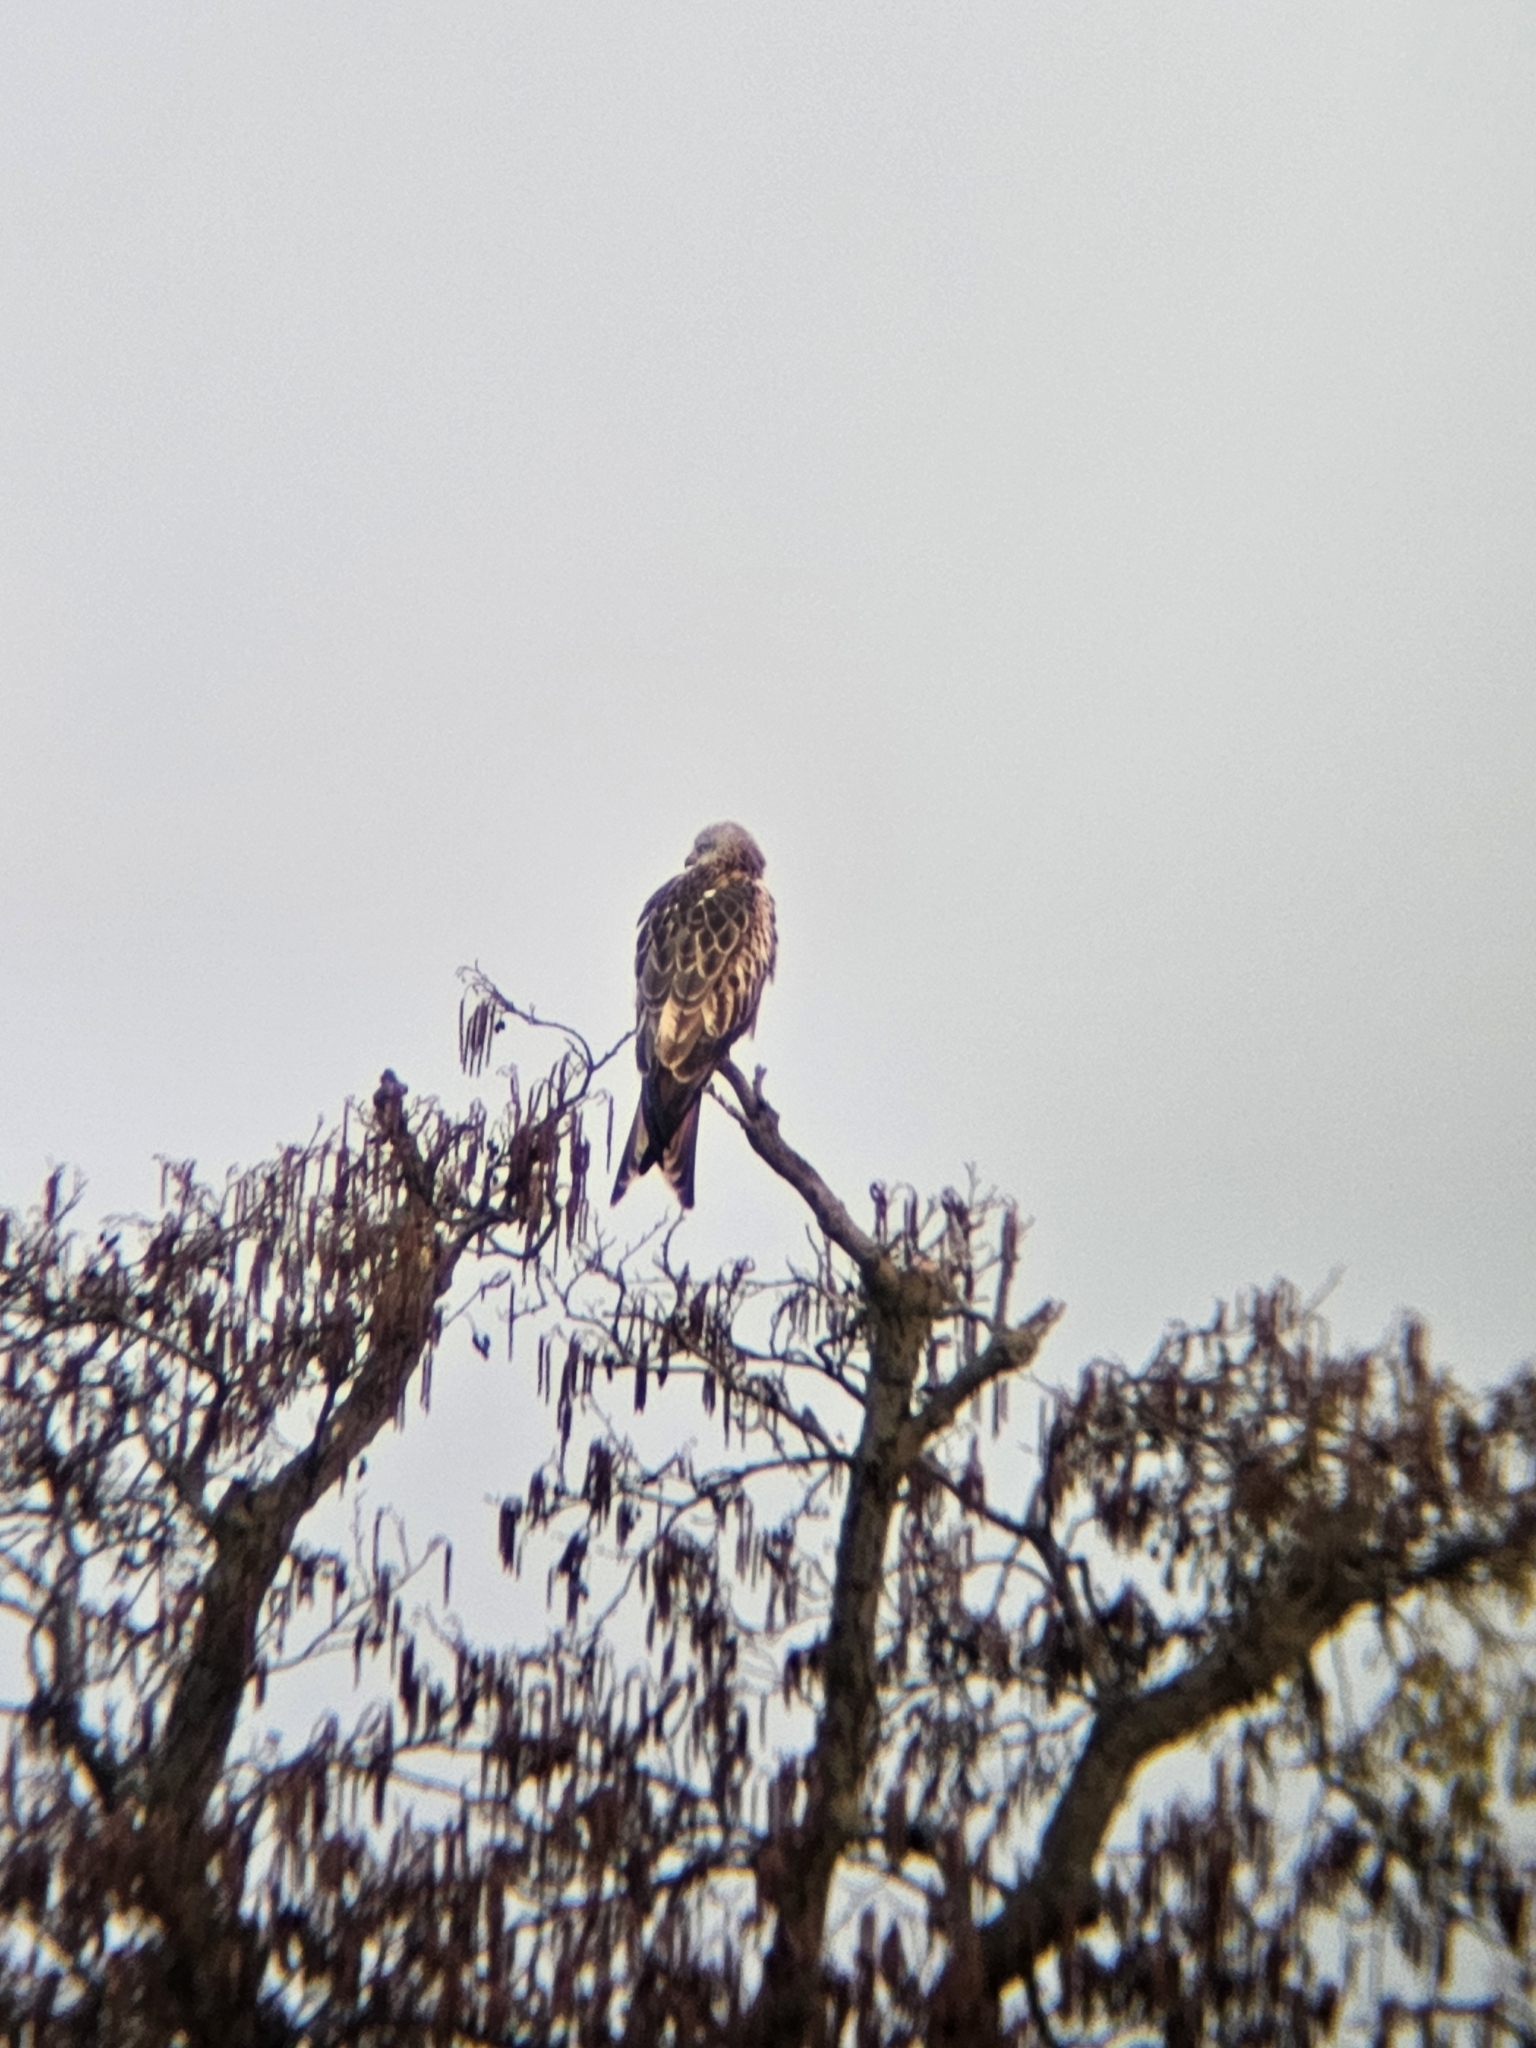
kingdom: Animalia
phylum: Chordata
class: Aves
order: Accipitriformes
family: Accipitridae
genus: Milvus
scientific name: Milvus milvus
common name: Red kite
